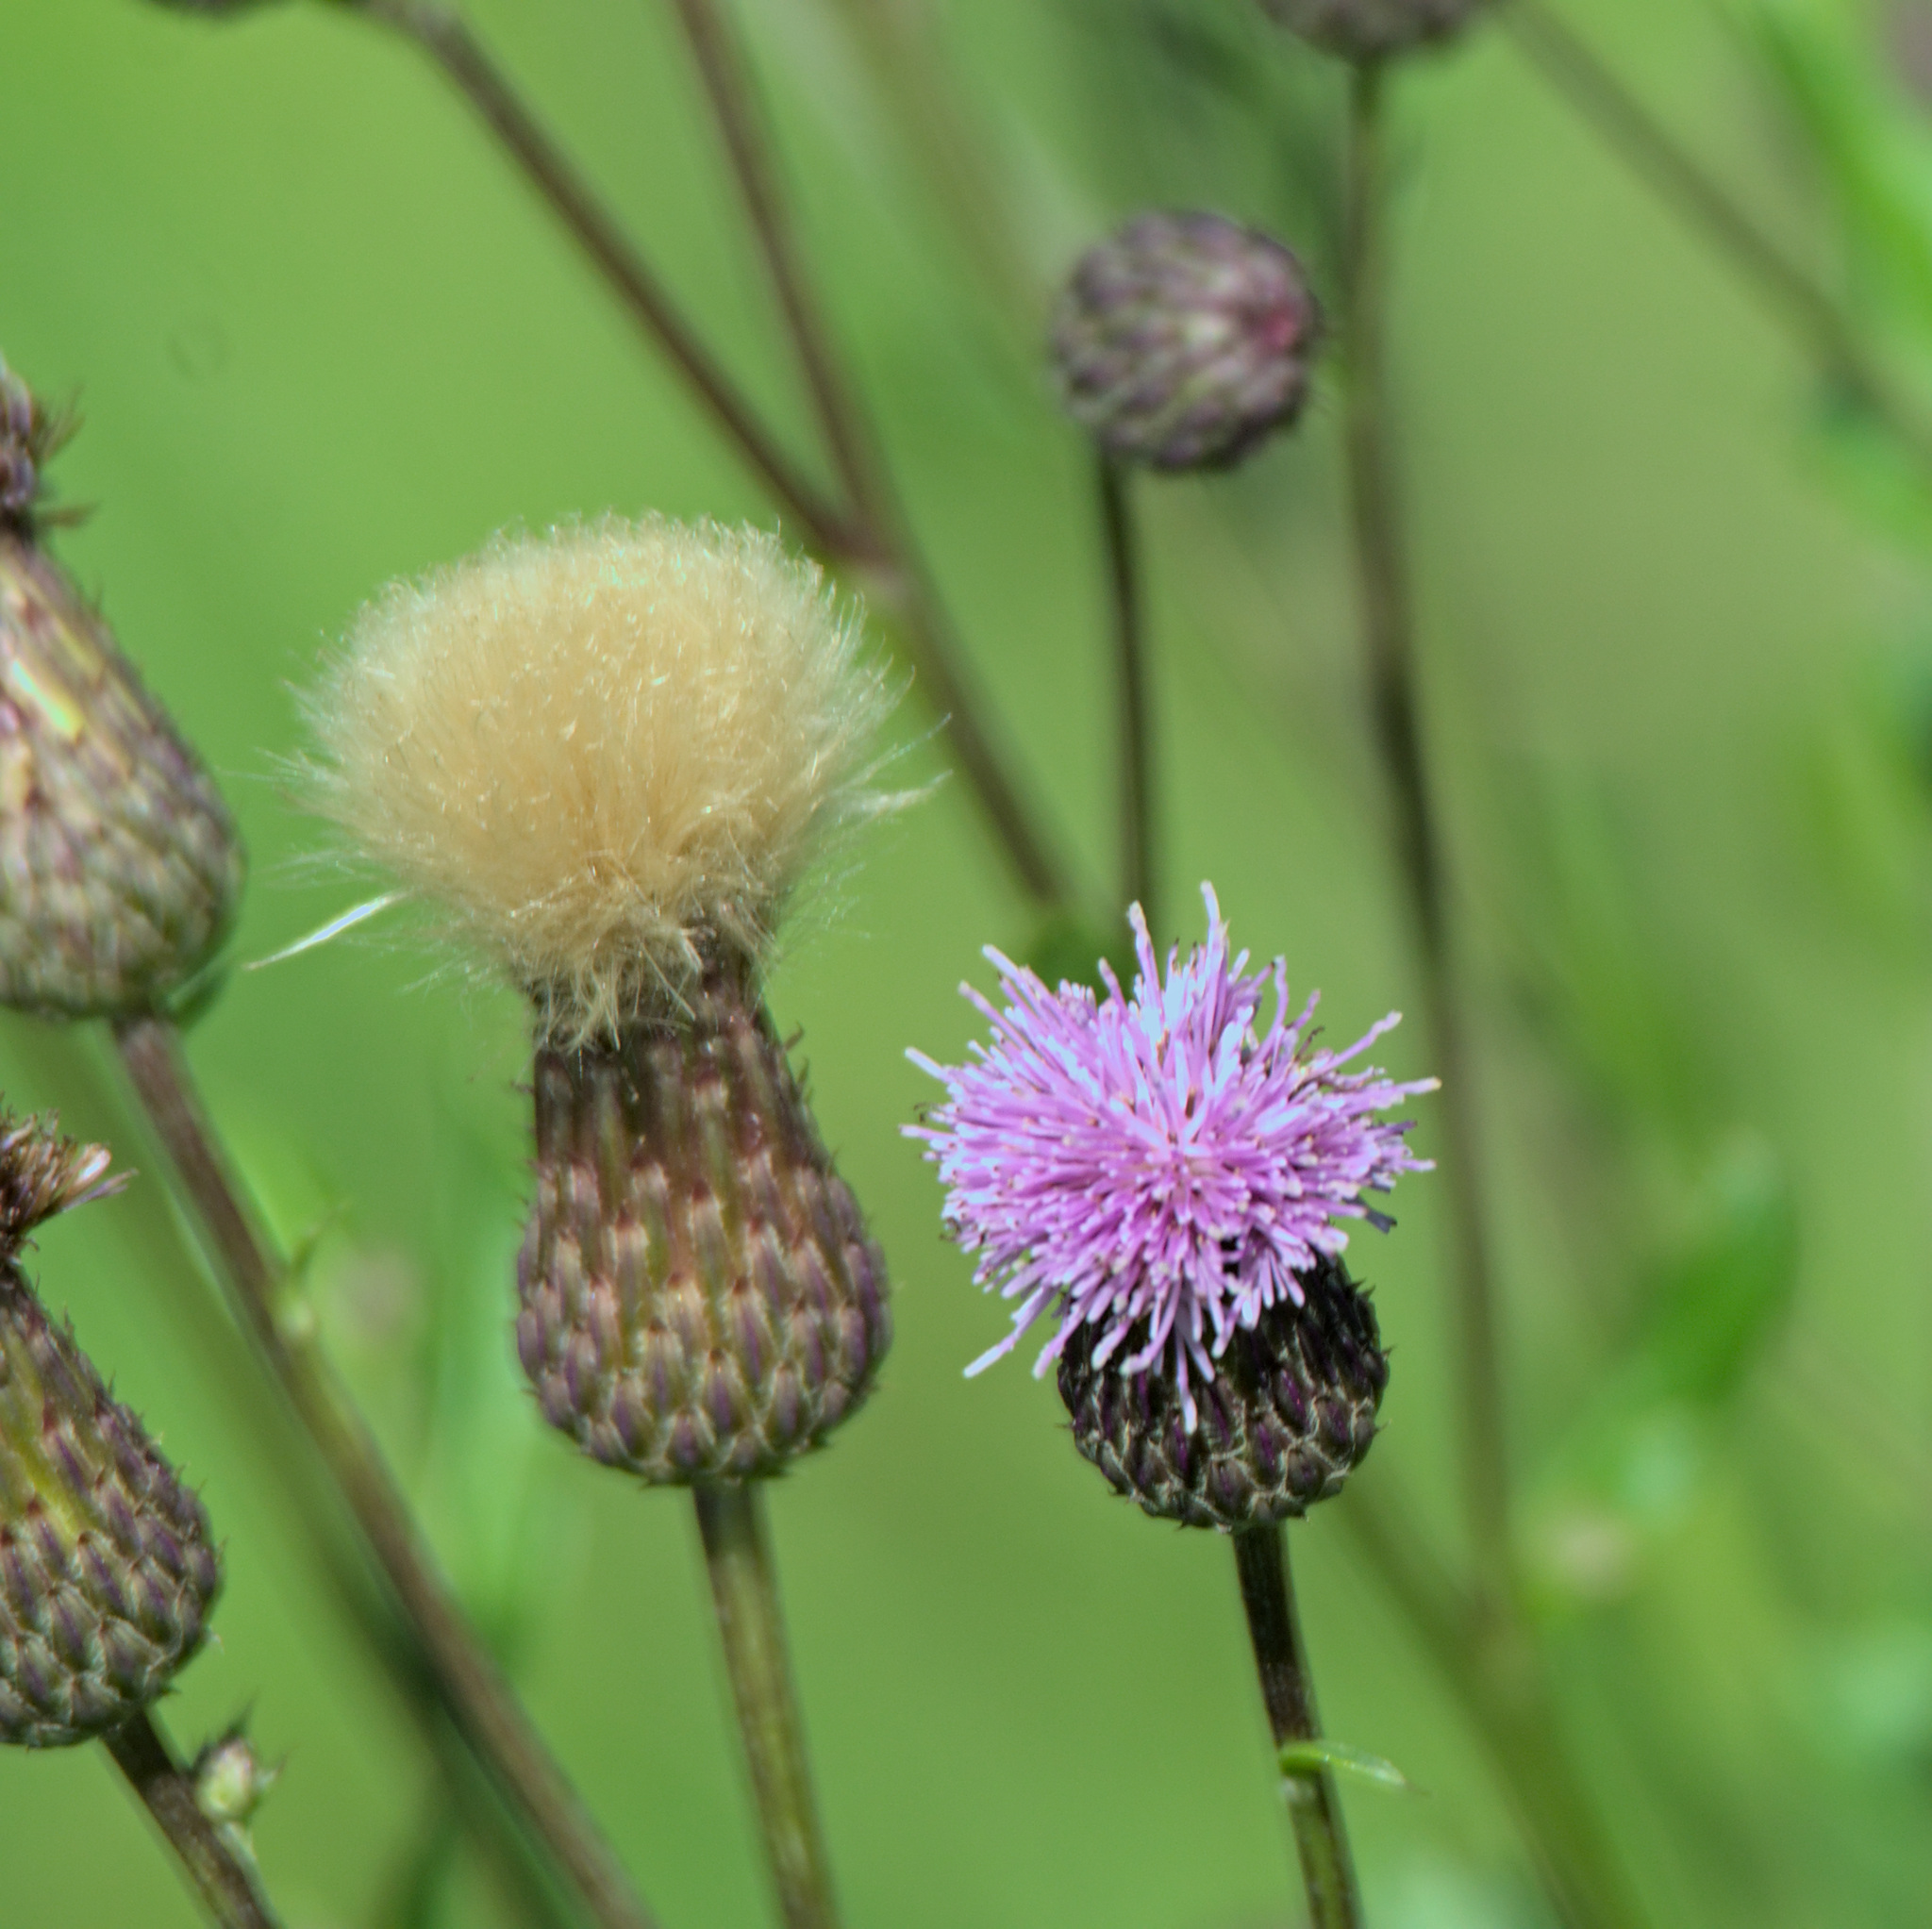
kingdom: Plantae
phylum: Tracheophyta
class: Magnoliopsida
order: Asterales
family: Asteraceae
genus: Cirsium
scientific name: Cirsium arvense
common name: Creeping thistle
